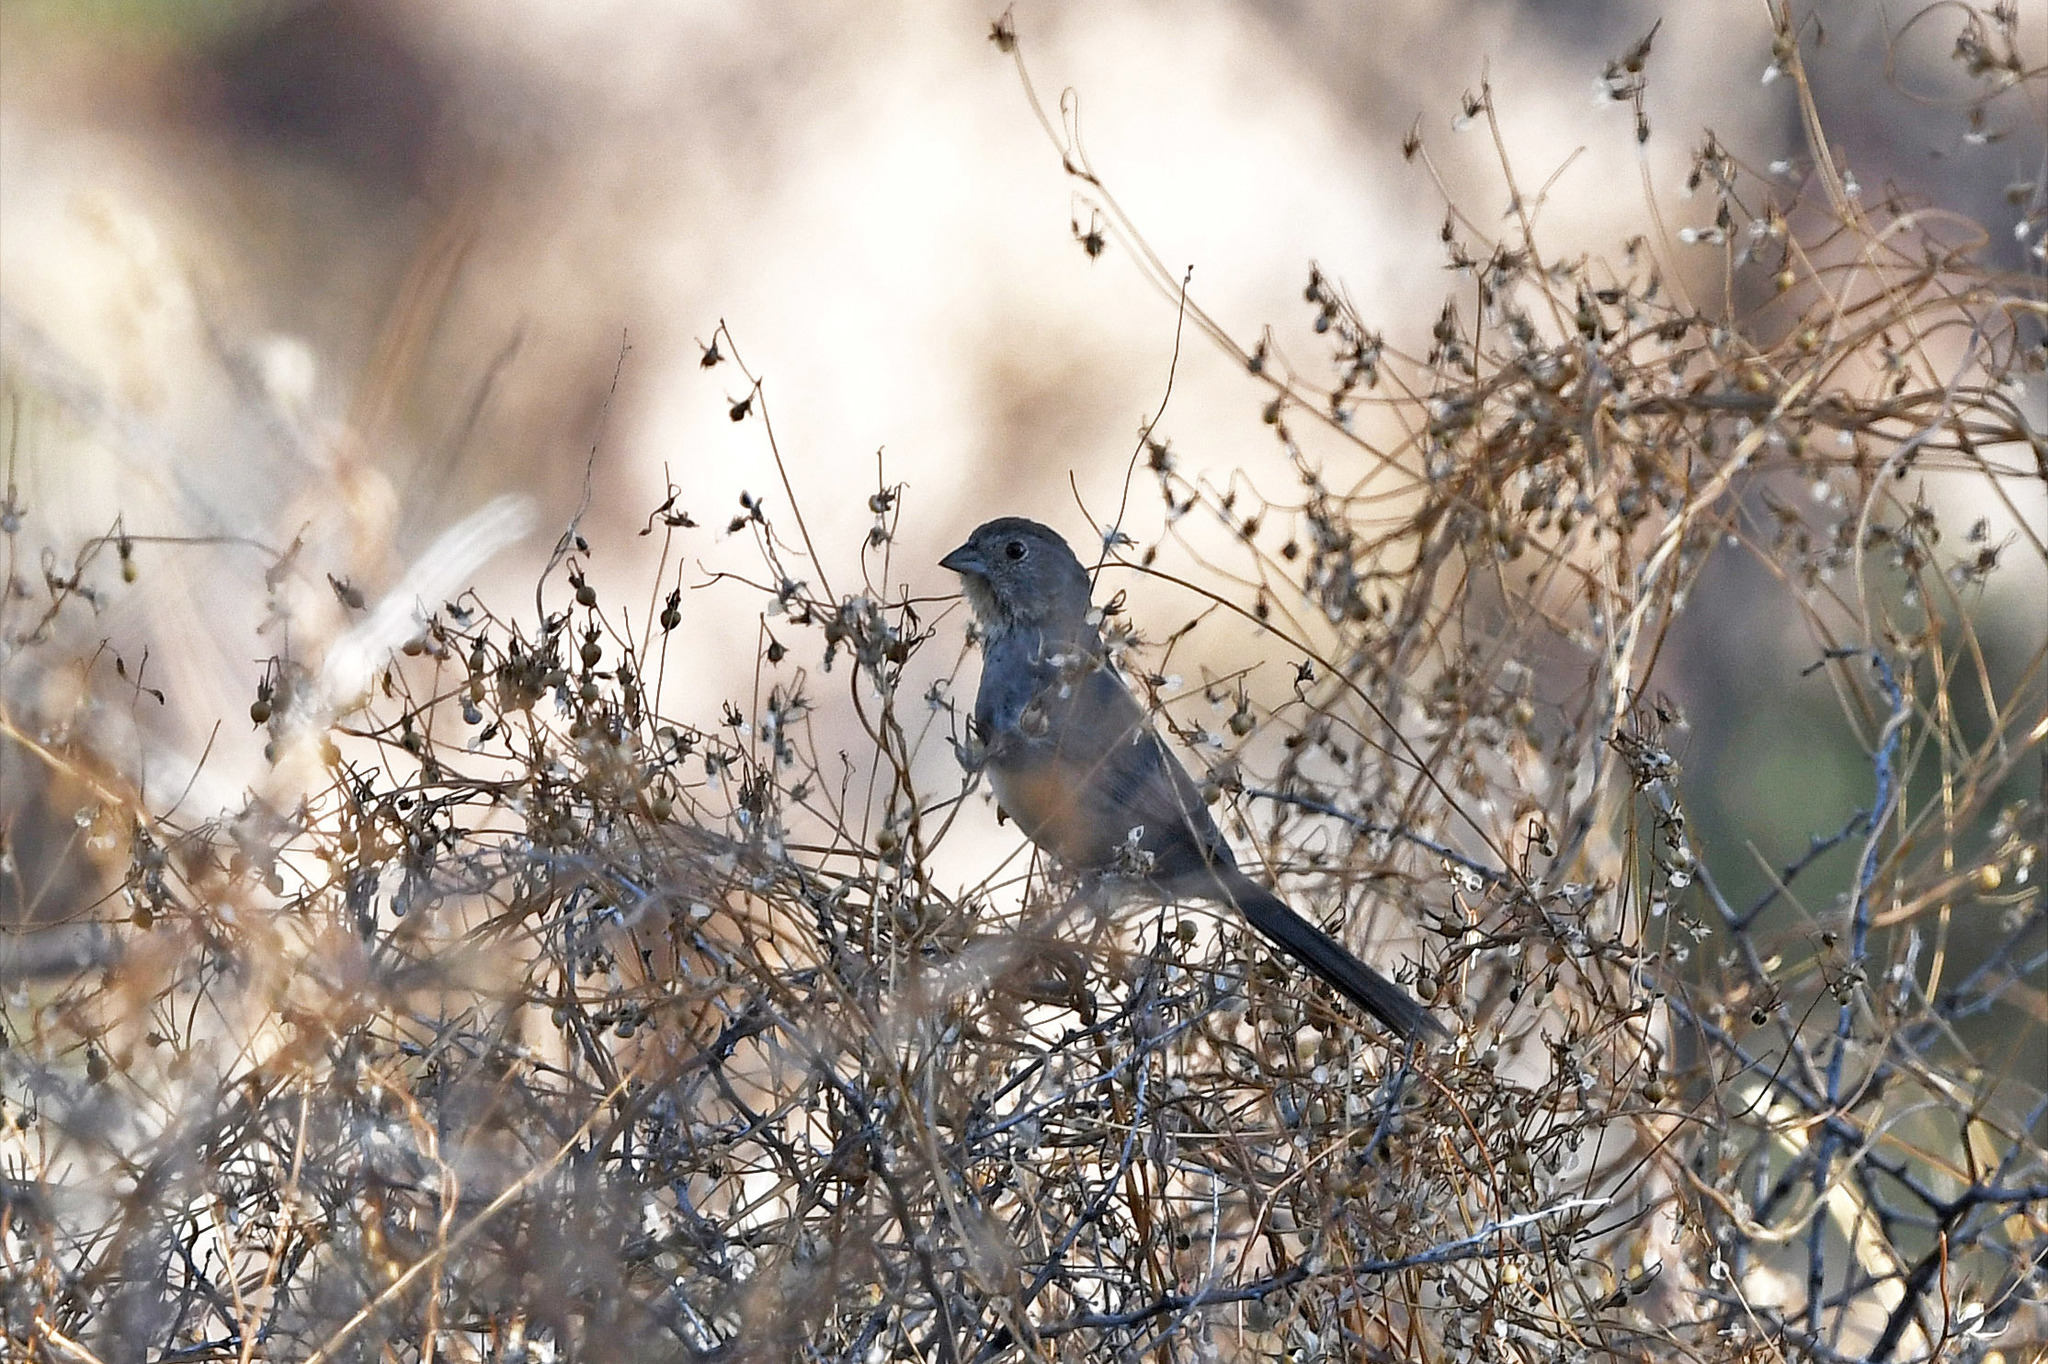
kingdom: Animalia
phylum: Chordata
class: Aves
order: Passeriformes
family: Passerellidae
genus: Melozone
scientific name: Melozone fusca
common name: Canyon towhee
